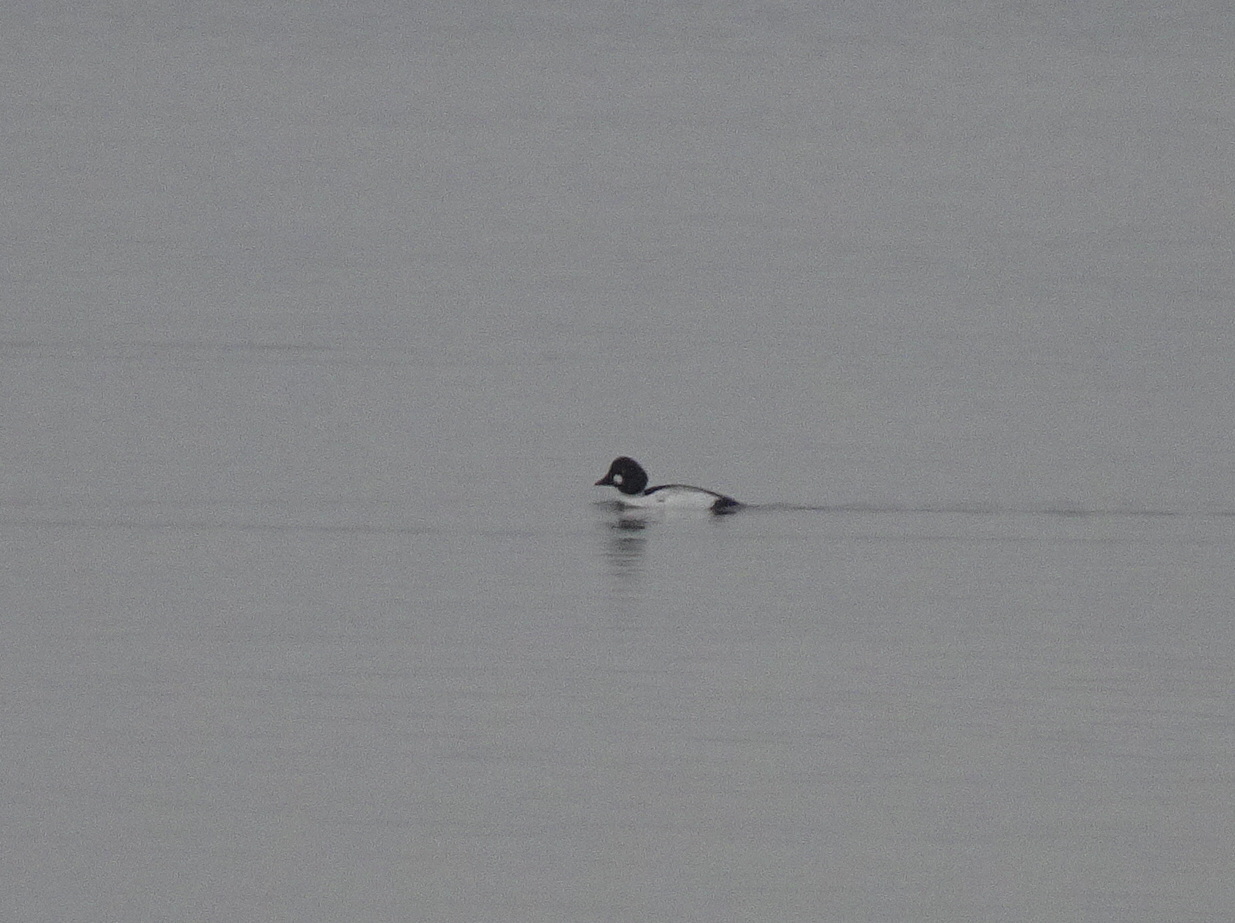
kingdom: Animalia
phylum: Chordata
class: Aves
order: Anseriformes
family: Anatidae
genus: Bucephala
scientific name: Bucephala clangula
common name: Common goldeneye
